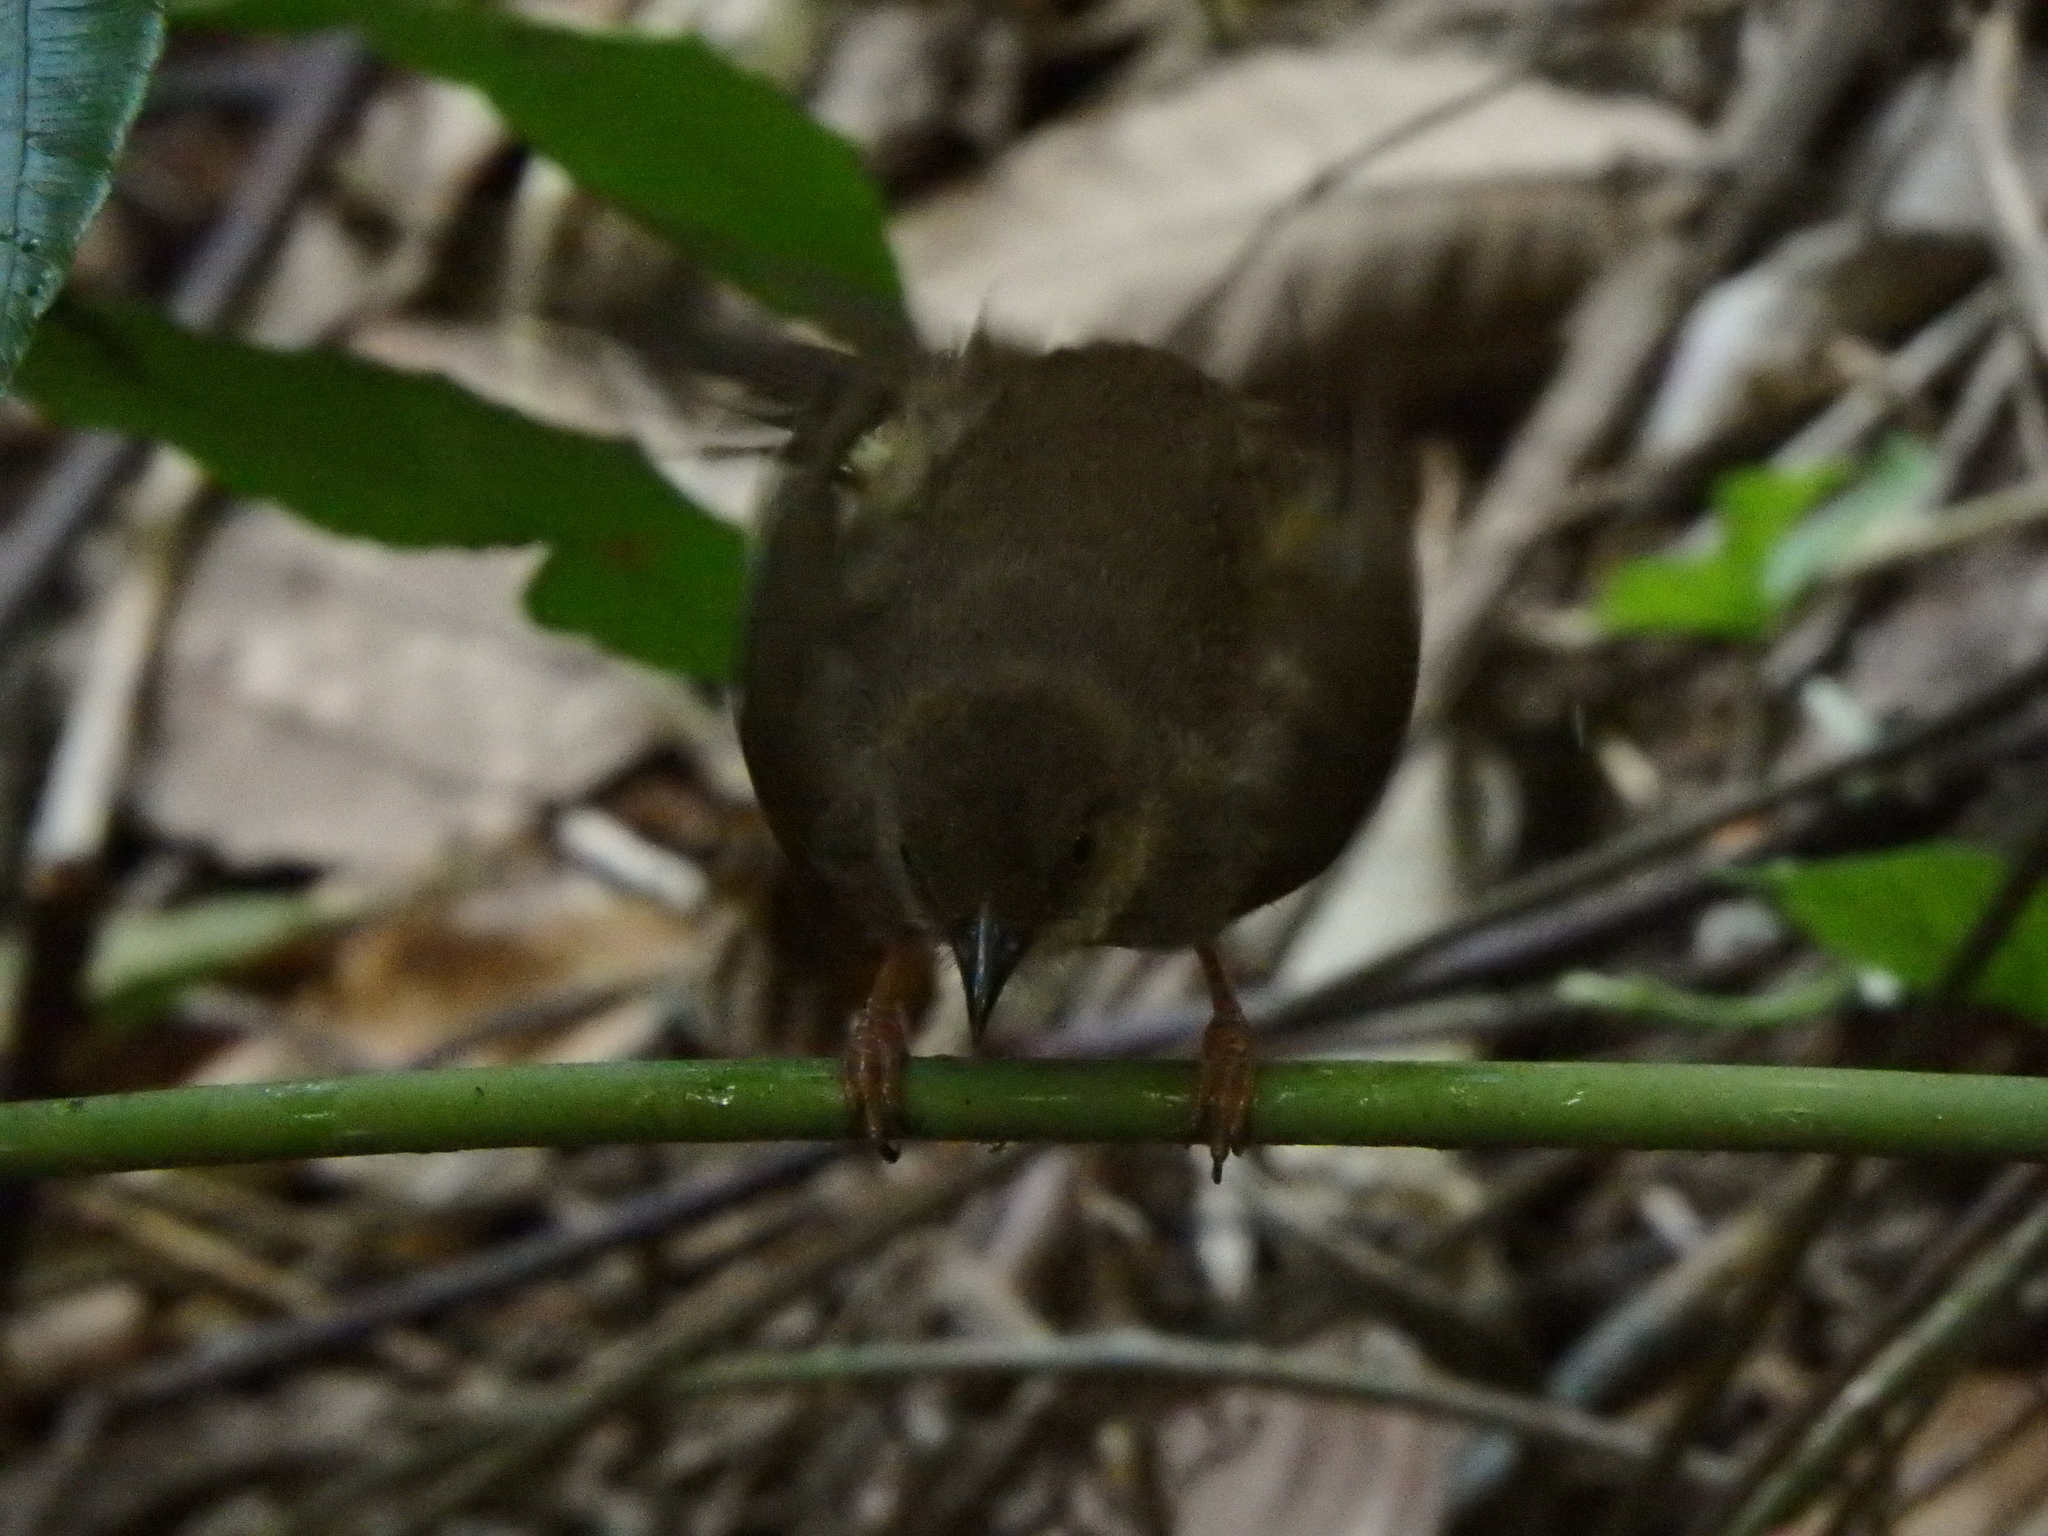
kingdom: Animalia
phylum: Chordata
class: Aves
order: Passeriformes
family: Pycnonotidae
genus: Pycnonotus
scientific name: Pycnonotus brunneus
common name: Asian red-eyed bulbul
